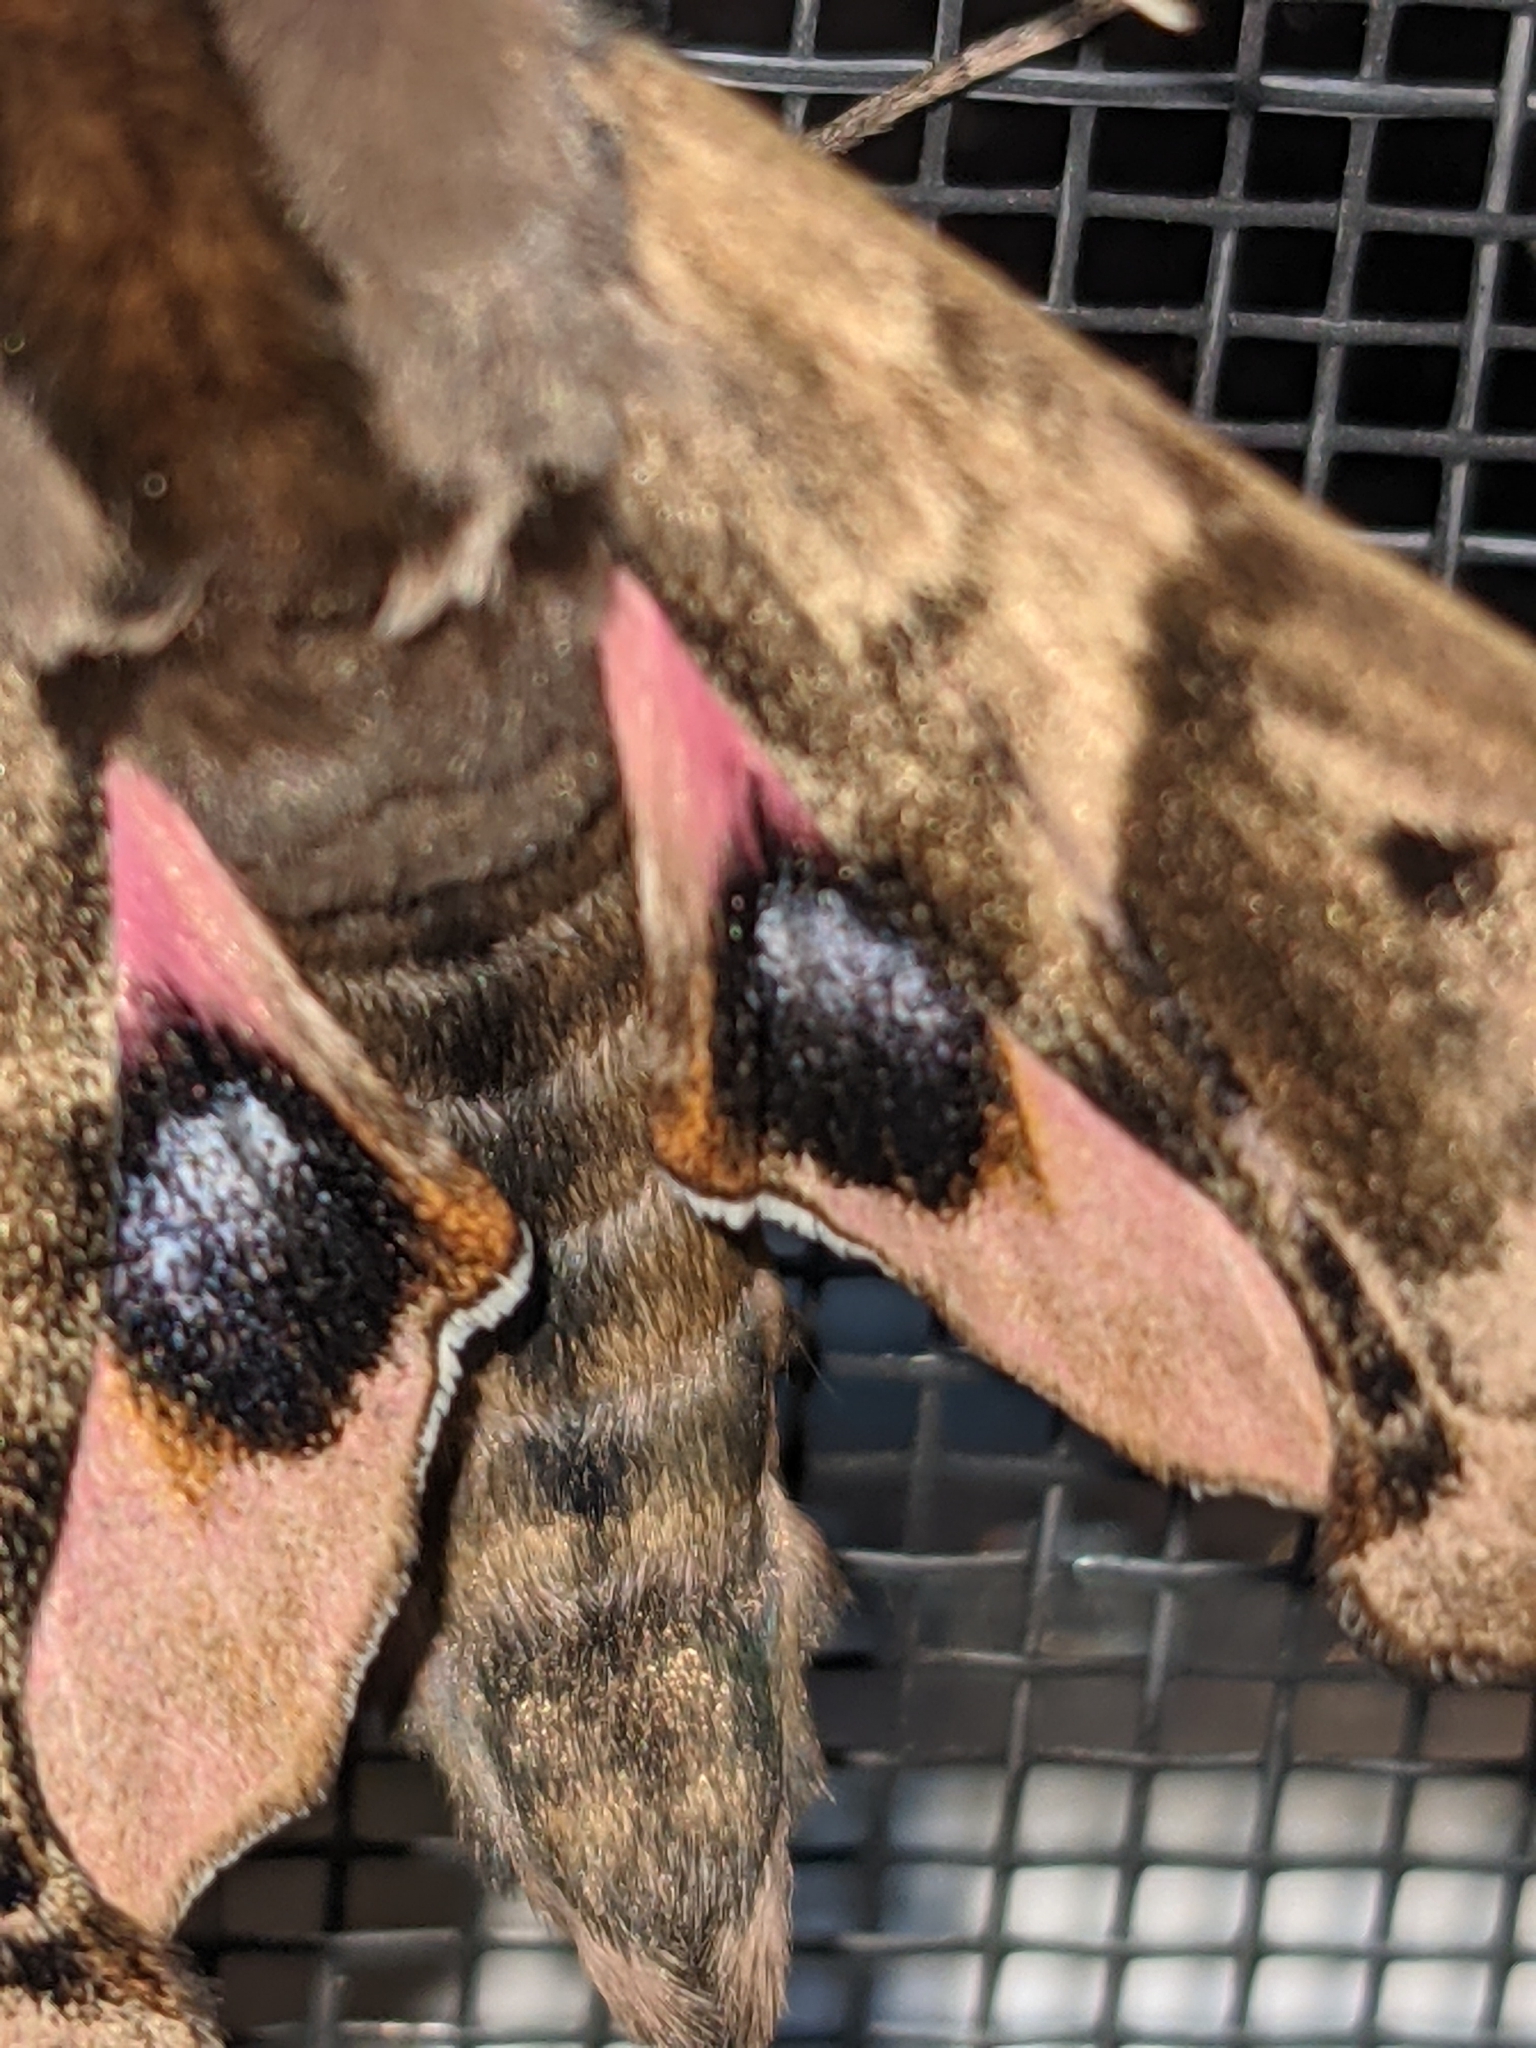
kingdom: Animalia
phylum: Arthropoda
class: Insecta
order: Lepidoptera
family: Sphingidae
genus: Paonias
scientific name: Paonias excaecata
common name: Blind-eyed sphinx
